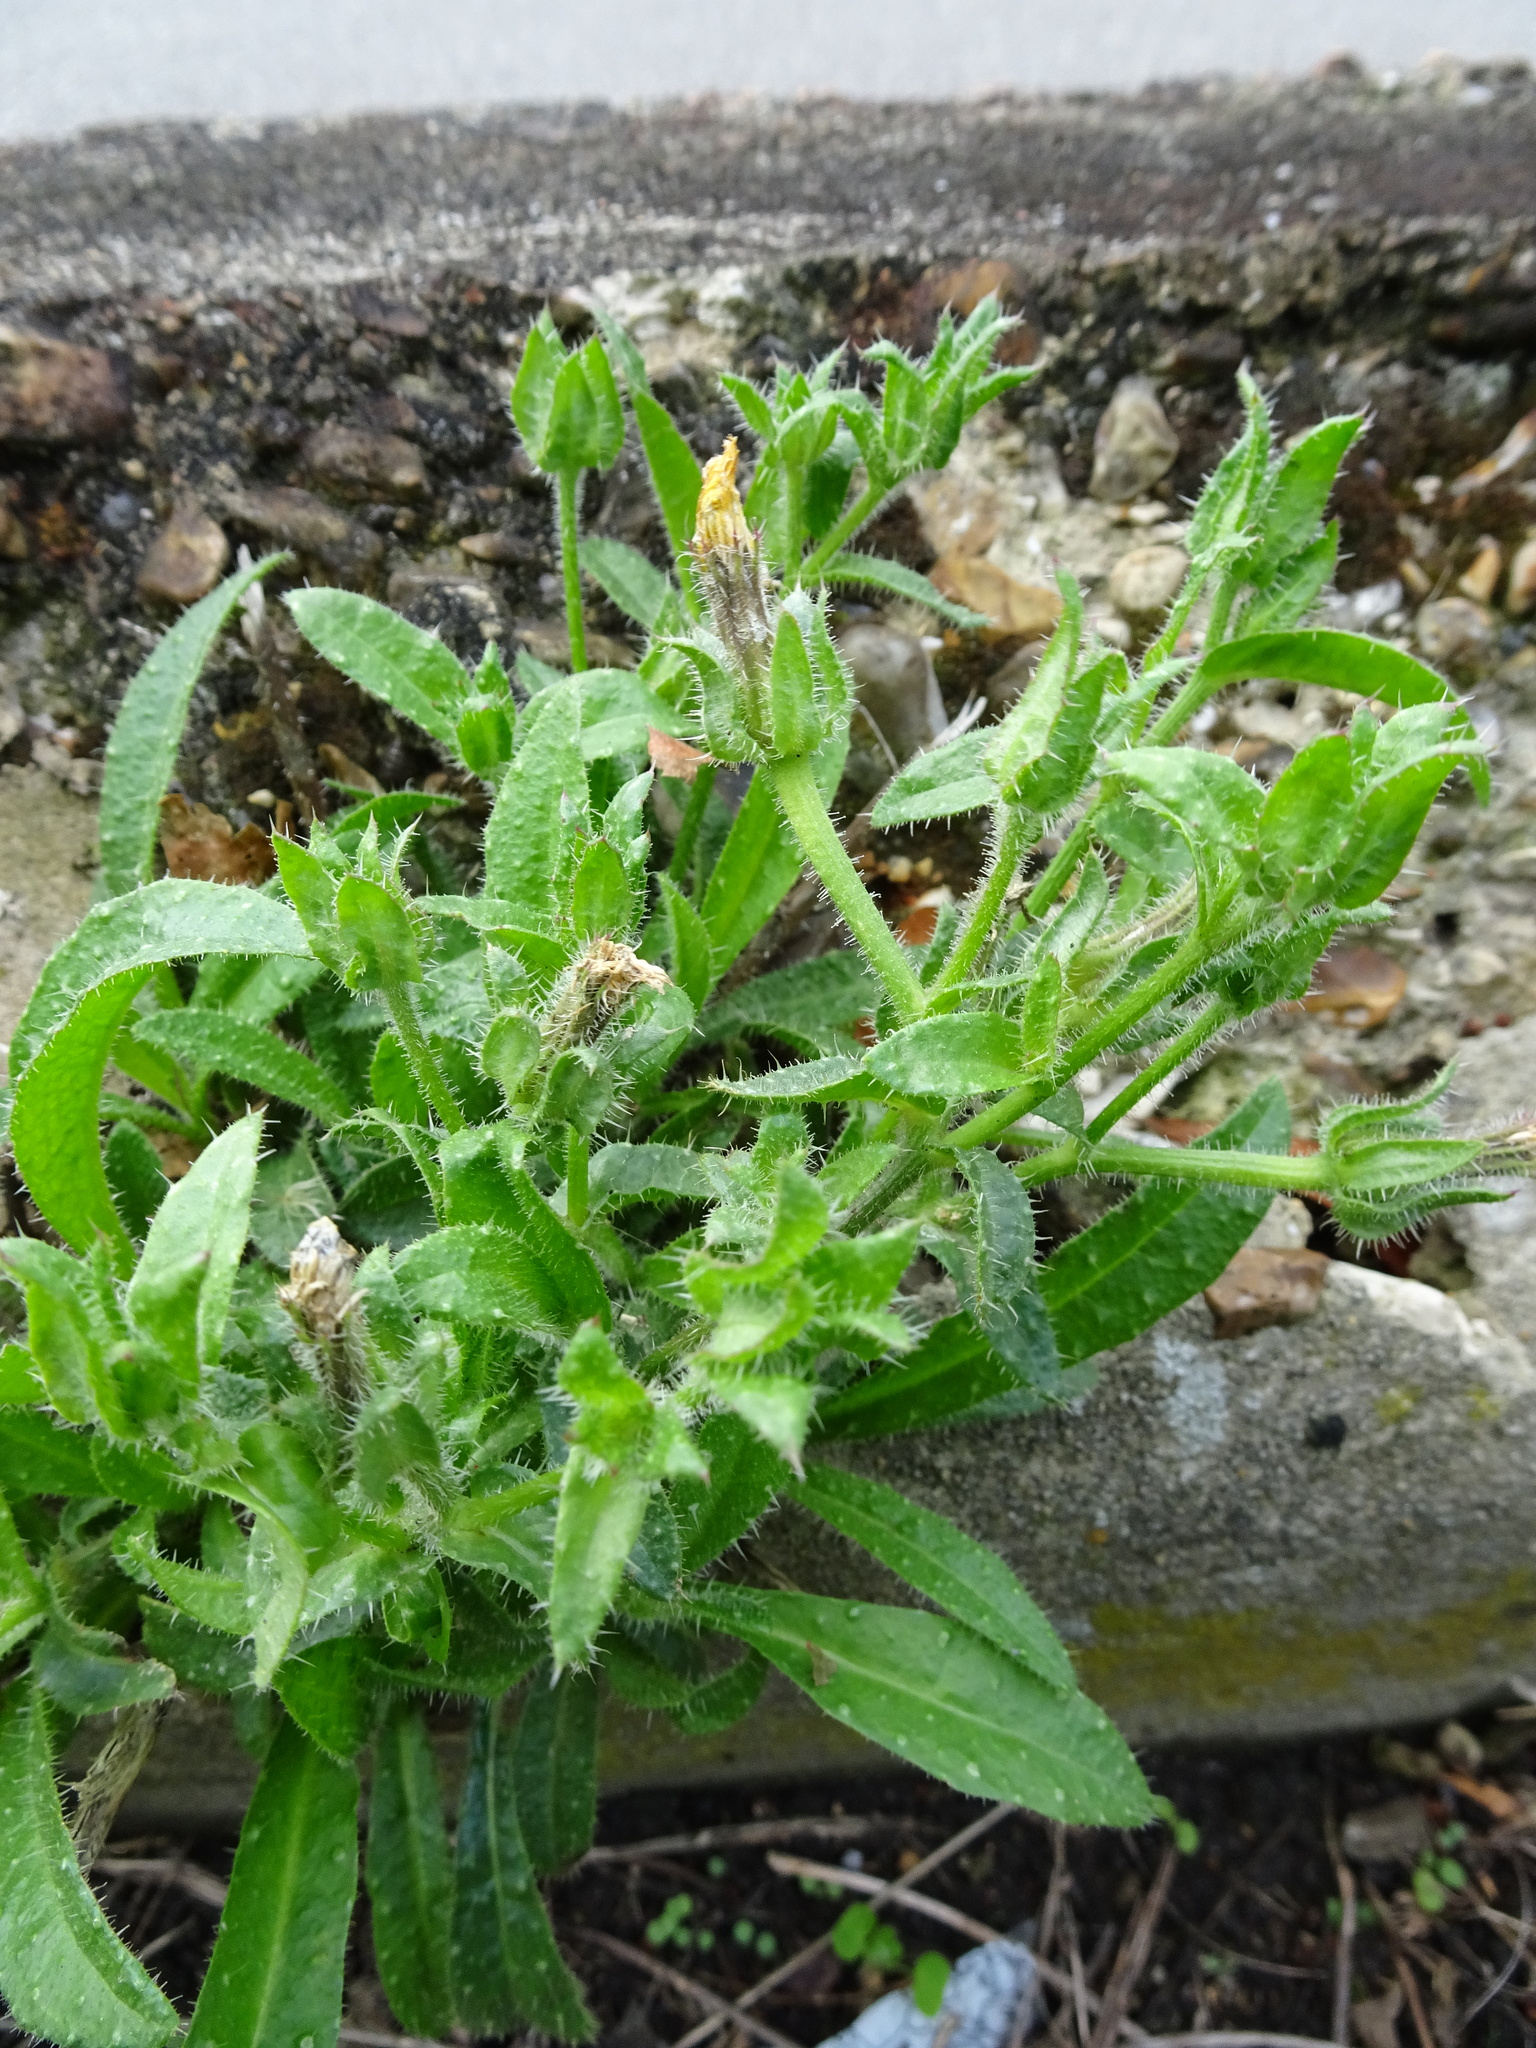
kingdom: Plantae
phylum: Tracheophyta
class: Magnoliopsida
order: Asterales
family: Asteraceae
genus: Helminthotheca
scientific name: Helminthotheca echioides
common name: Ox-tongue
